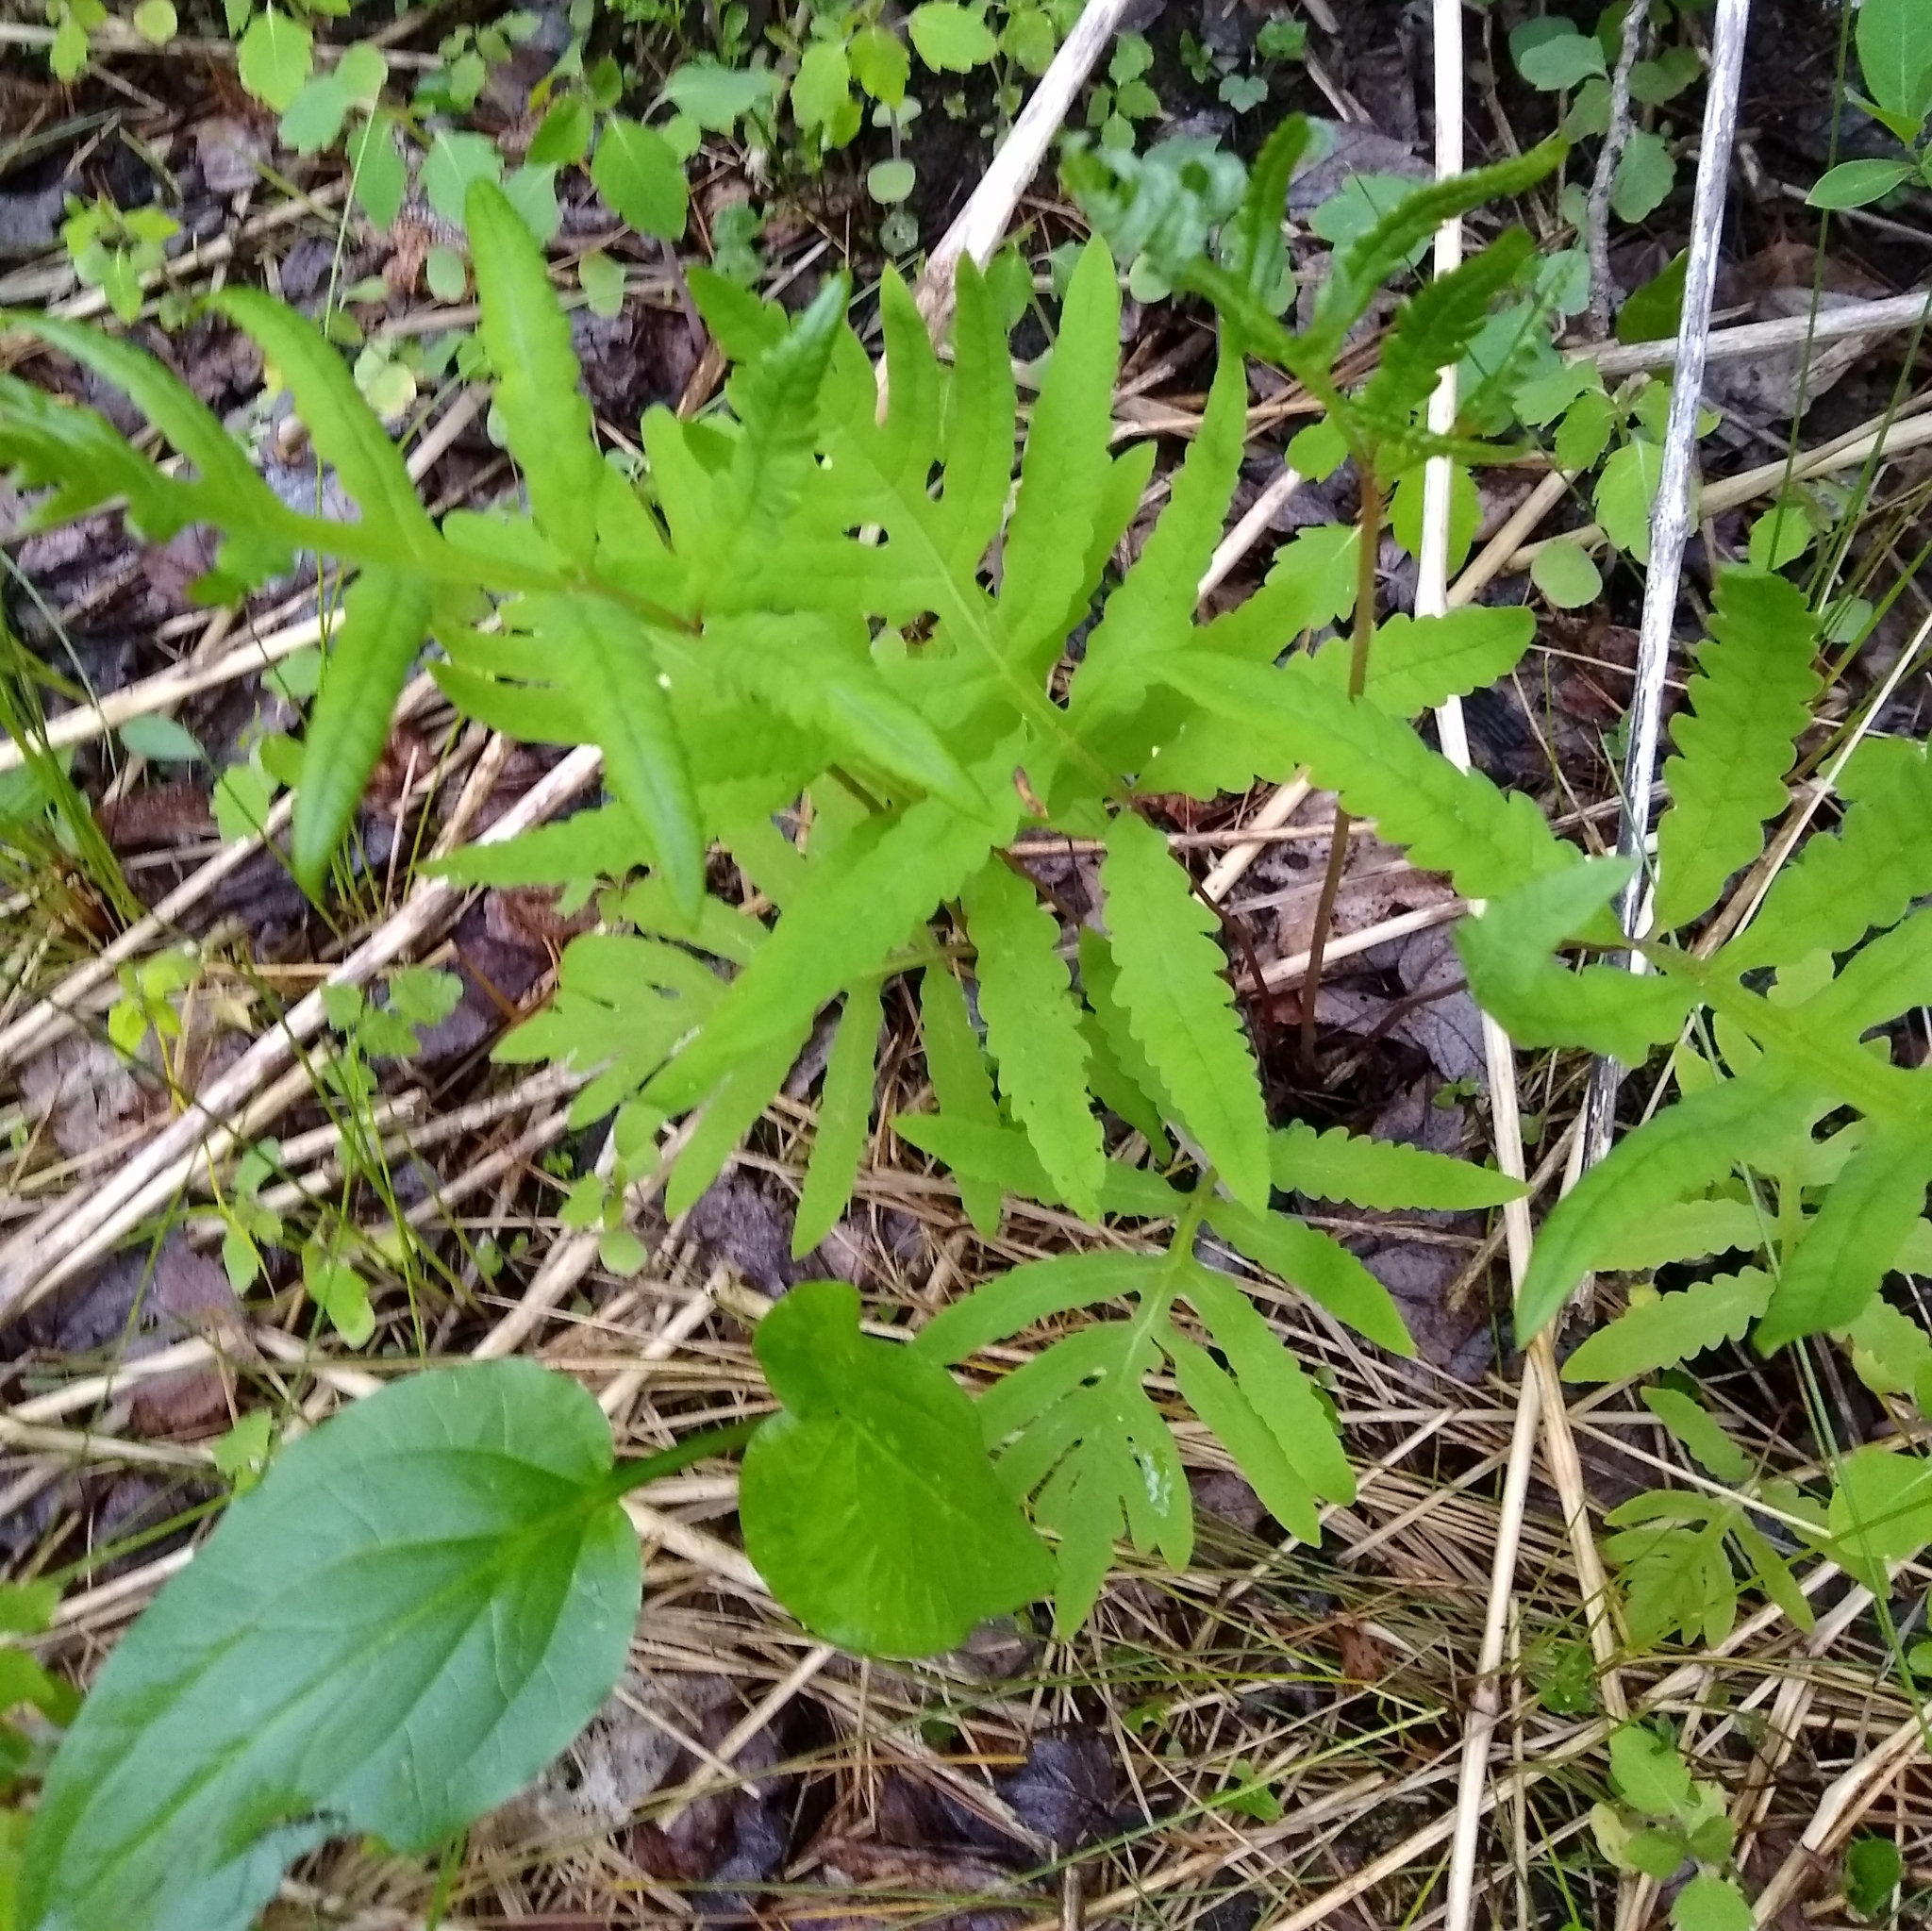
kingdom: Plantae
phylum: Tracheophyta
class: Polypodiopsida
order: Polypodiales
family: Onocleaceae
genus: Onoclea
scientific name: Onoclea sensibilis
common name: Sensitive fern
